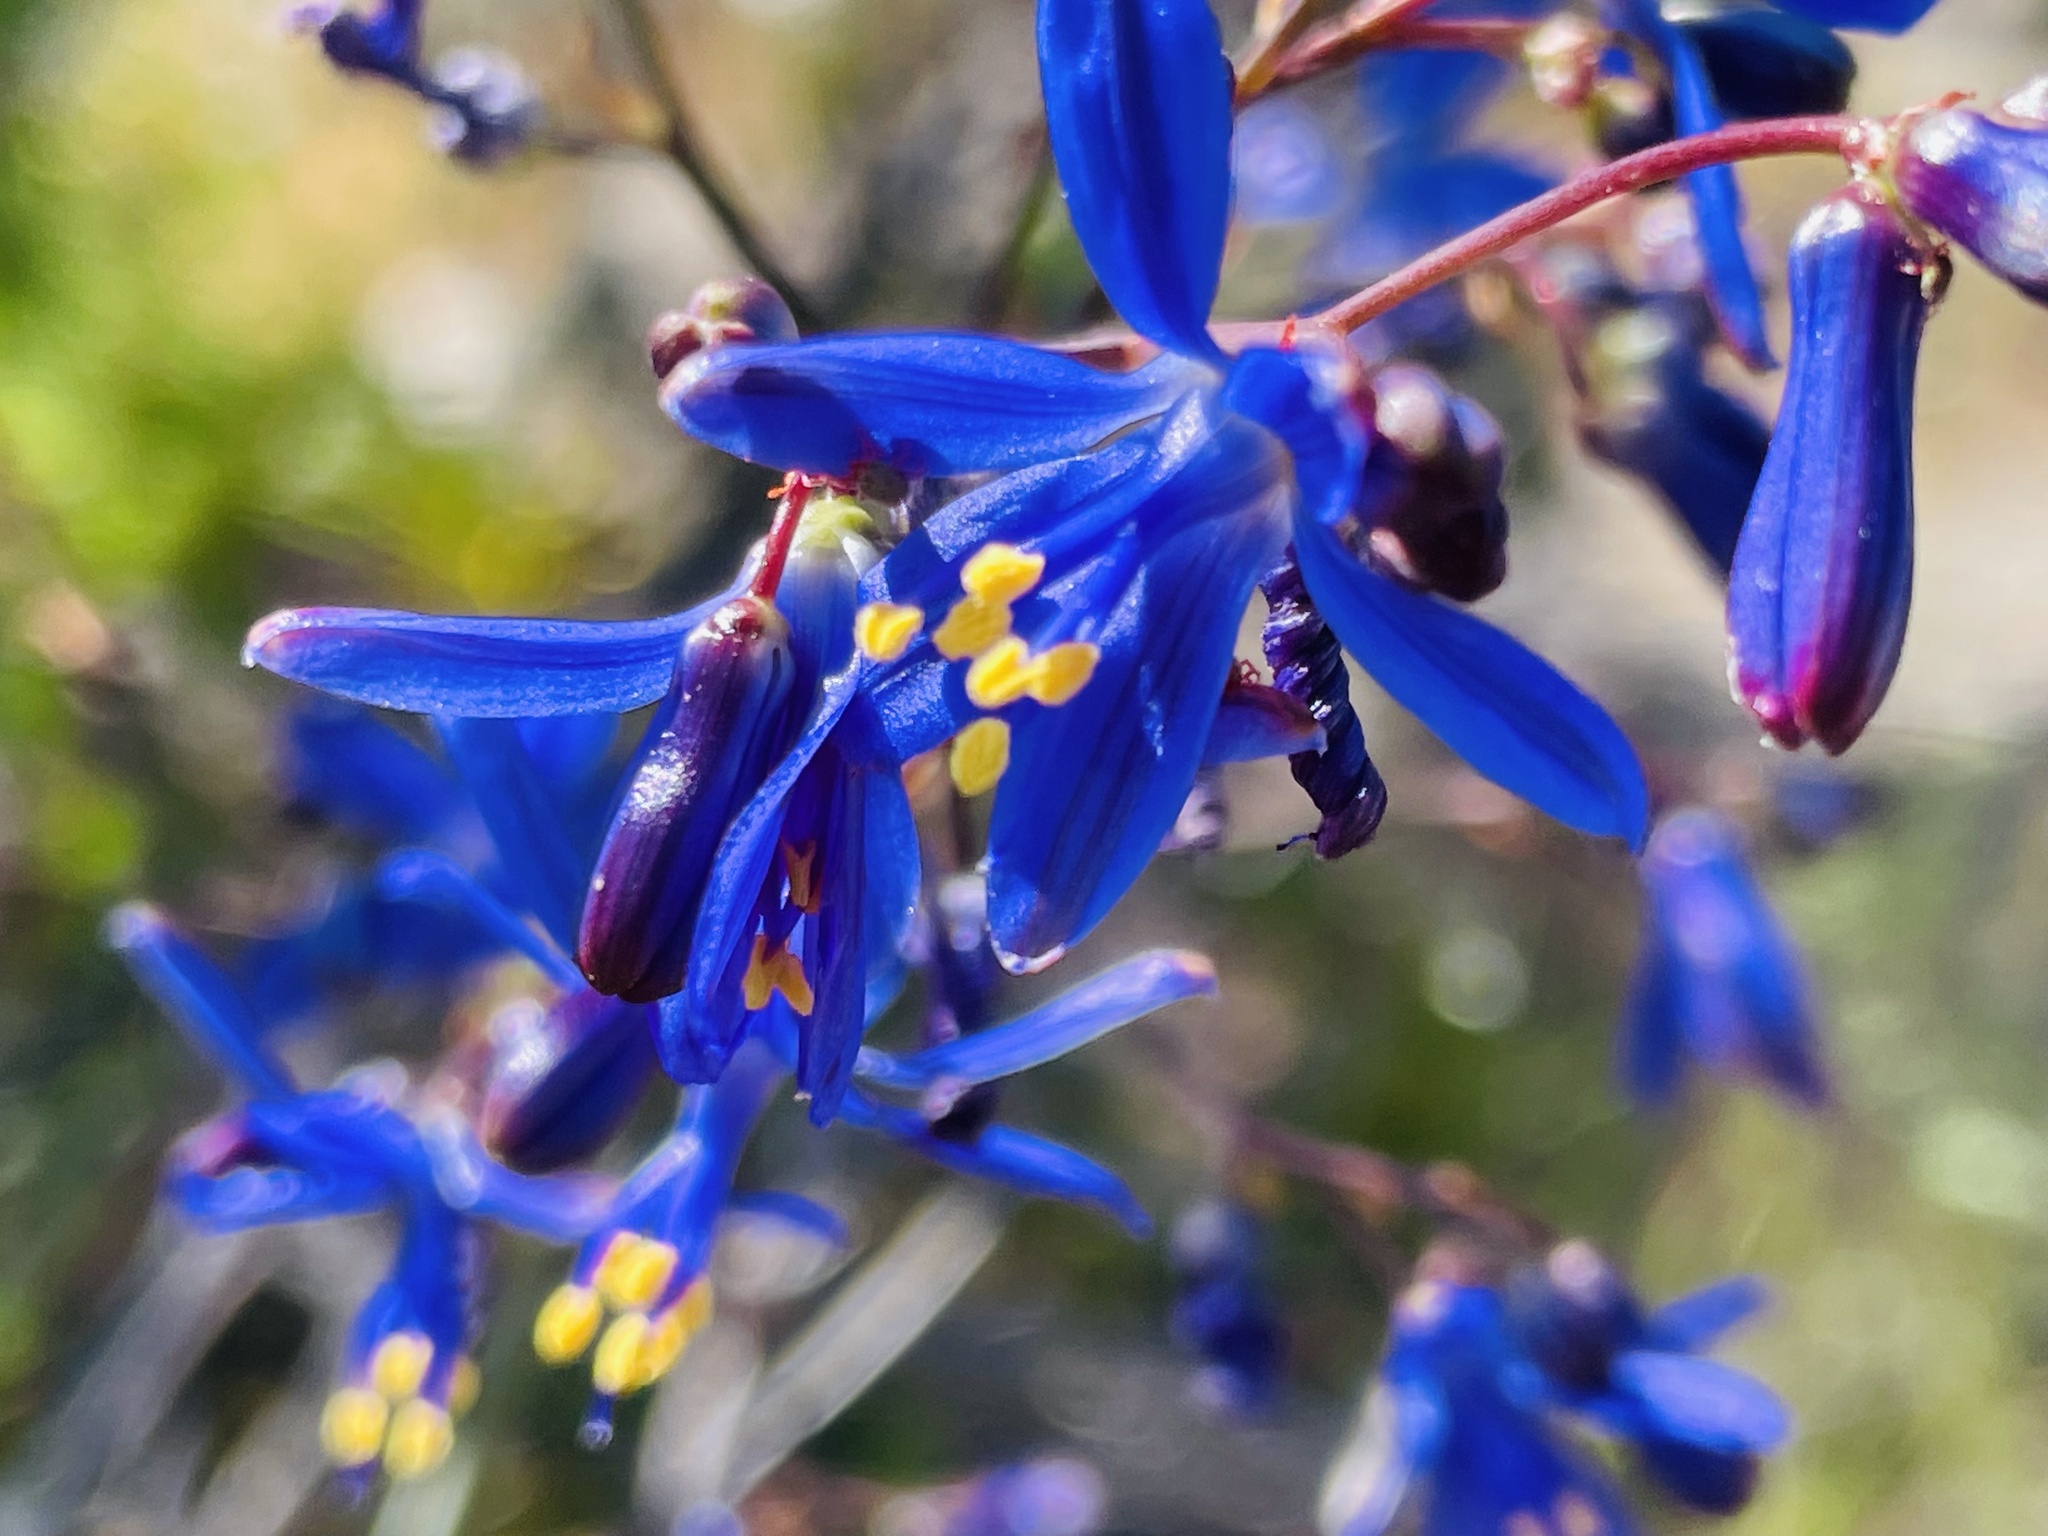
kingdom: Plantae
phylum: Tracheophyta
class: Liliopsida
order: Asparagales
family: Asphodelaceae
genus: Pasithea
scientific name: Pasithea caerulea
